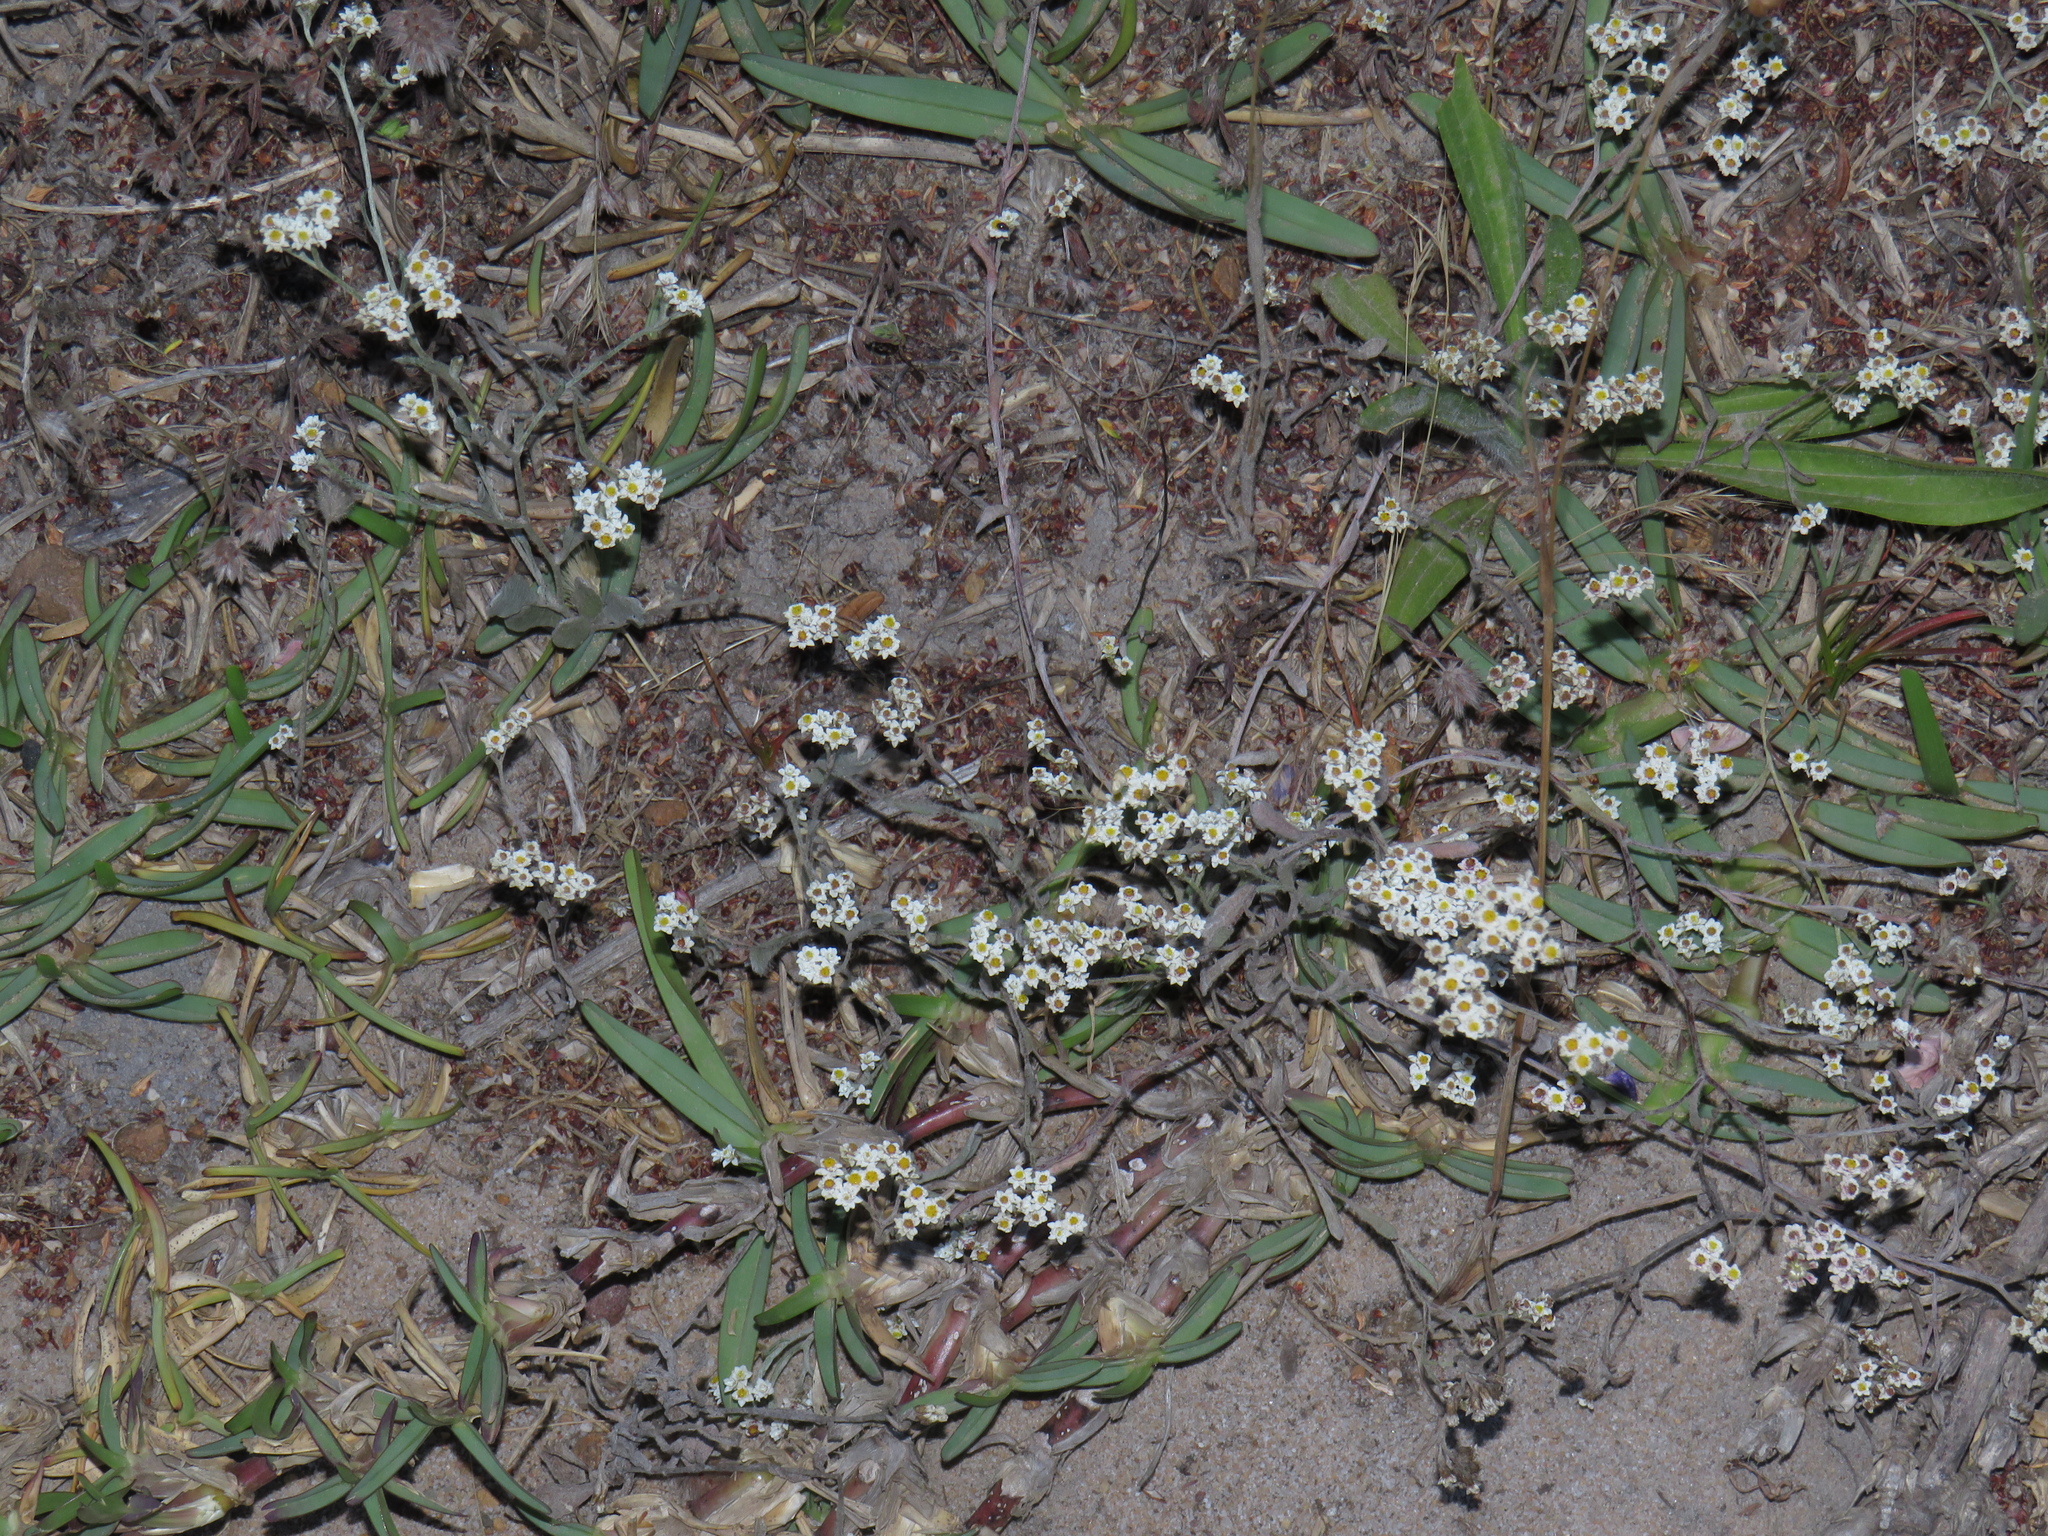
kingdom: Plantae
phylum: Tracheophyta
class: Magnoliopsida
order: Asterales
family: Asteraceae
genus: Helichrysum
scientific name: Helichrysum indicum
